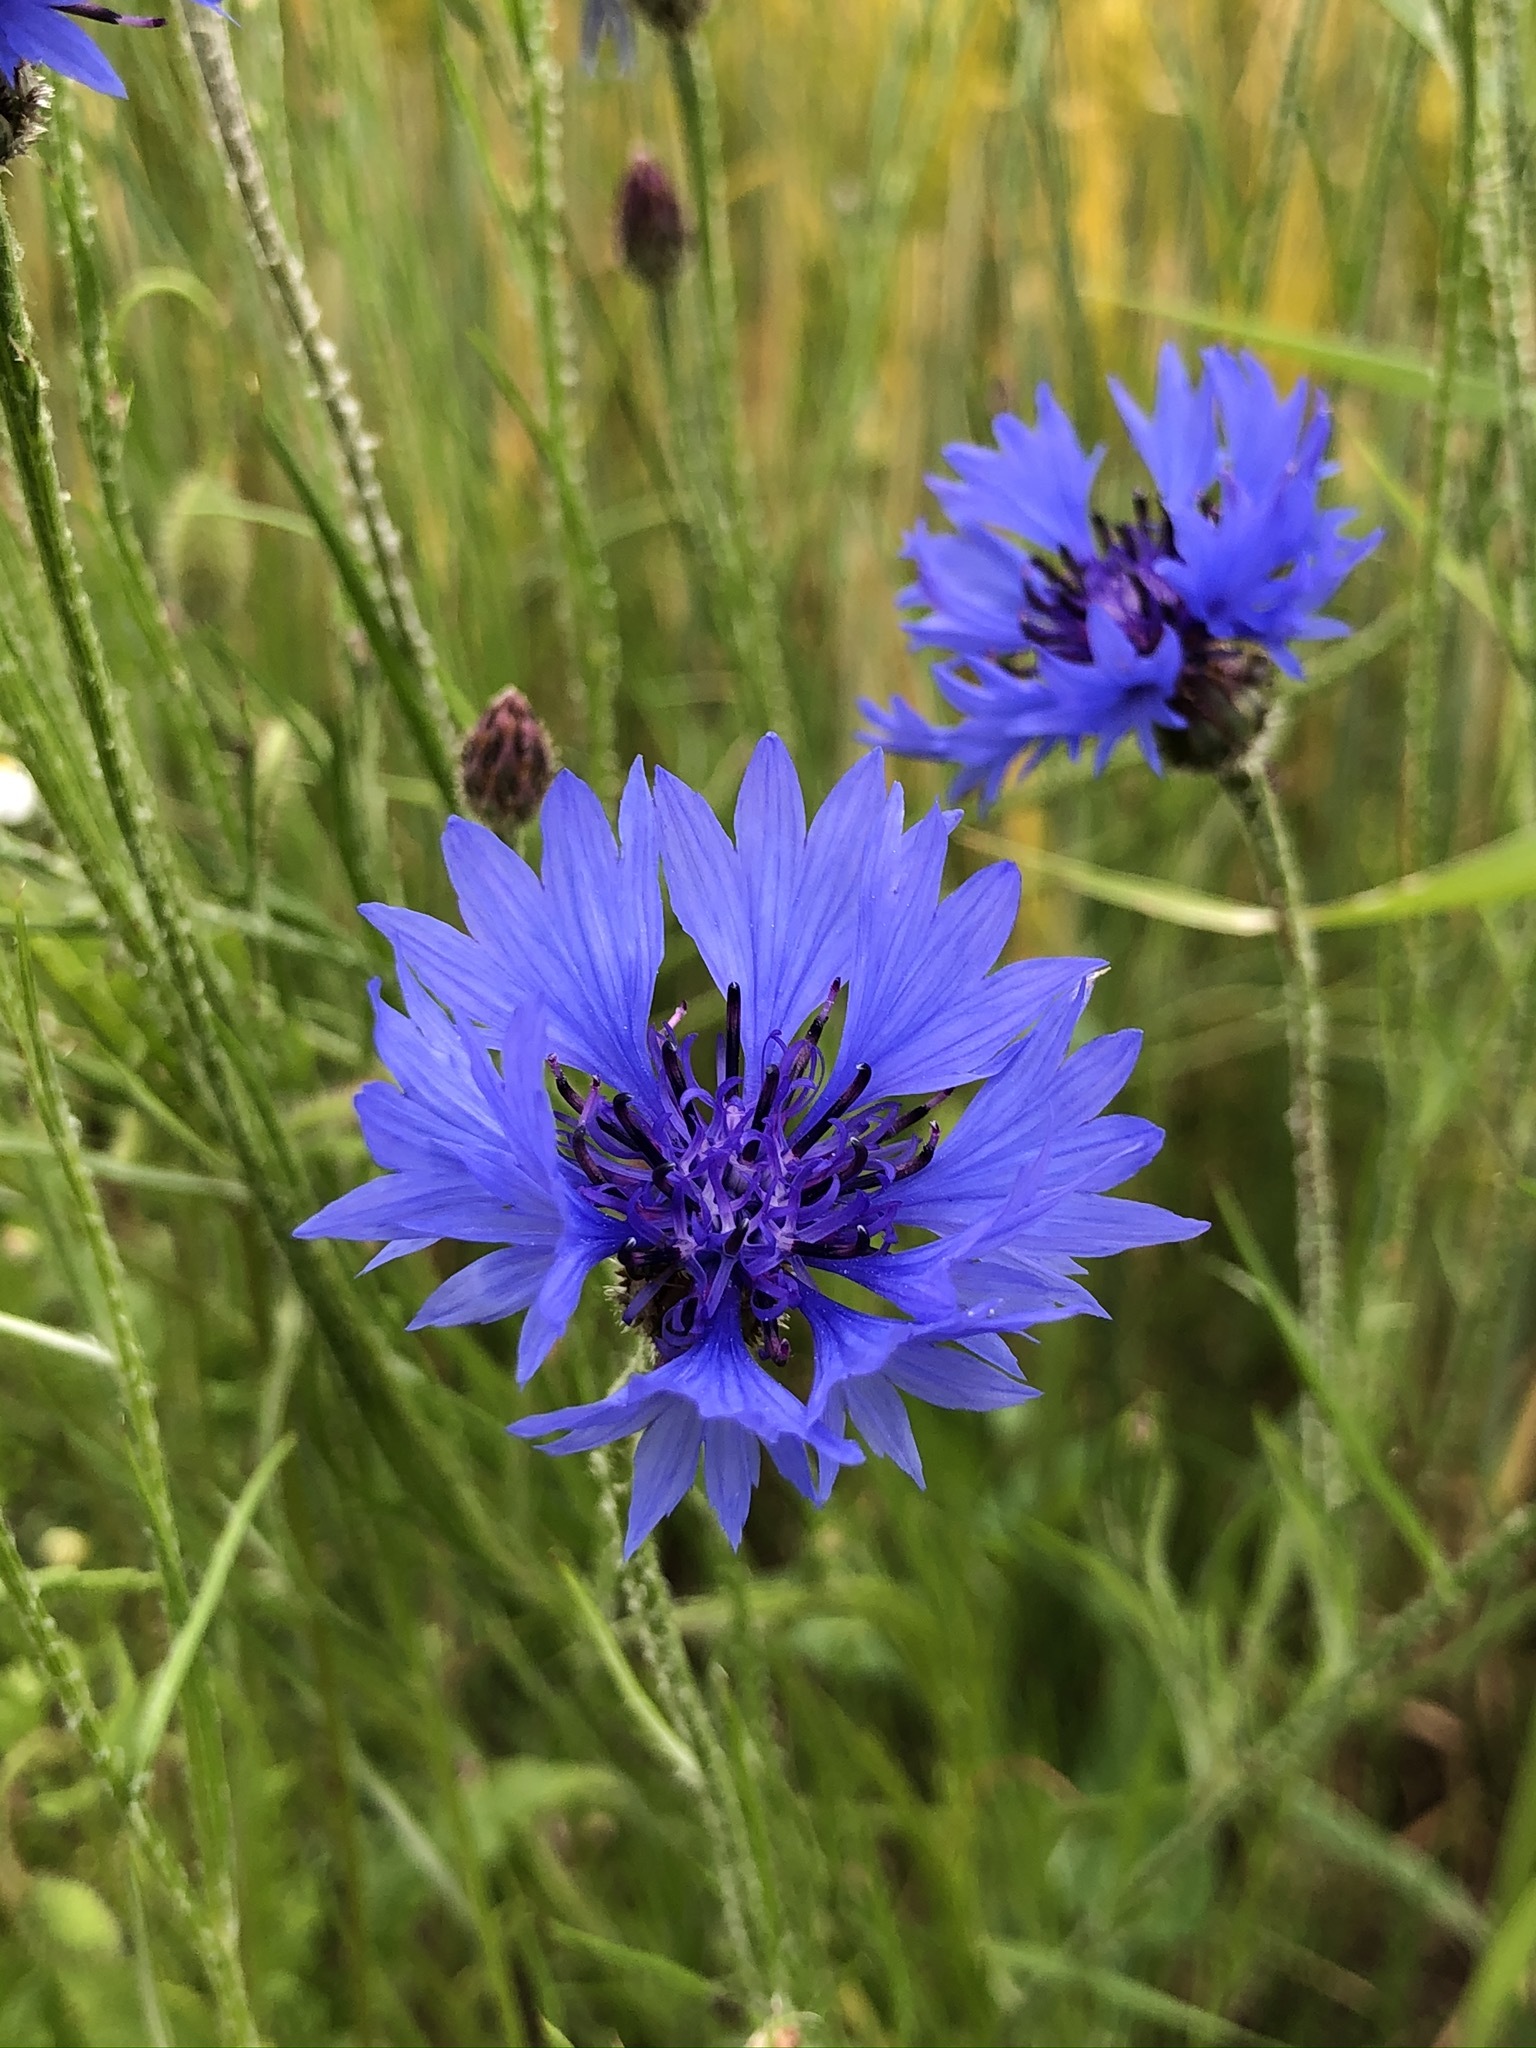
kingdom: Plantae
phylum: Tracheophyta
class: Magnoliopsida
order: Asterales
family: Asteraceae
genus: Centaurea
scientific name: Centaurea cyanus
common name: Cornflower
